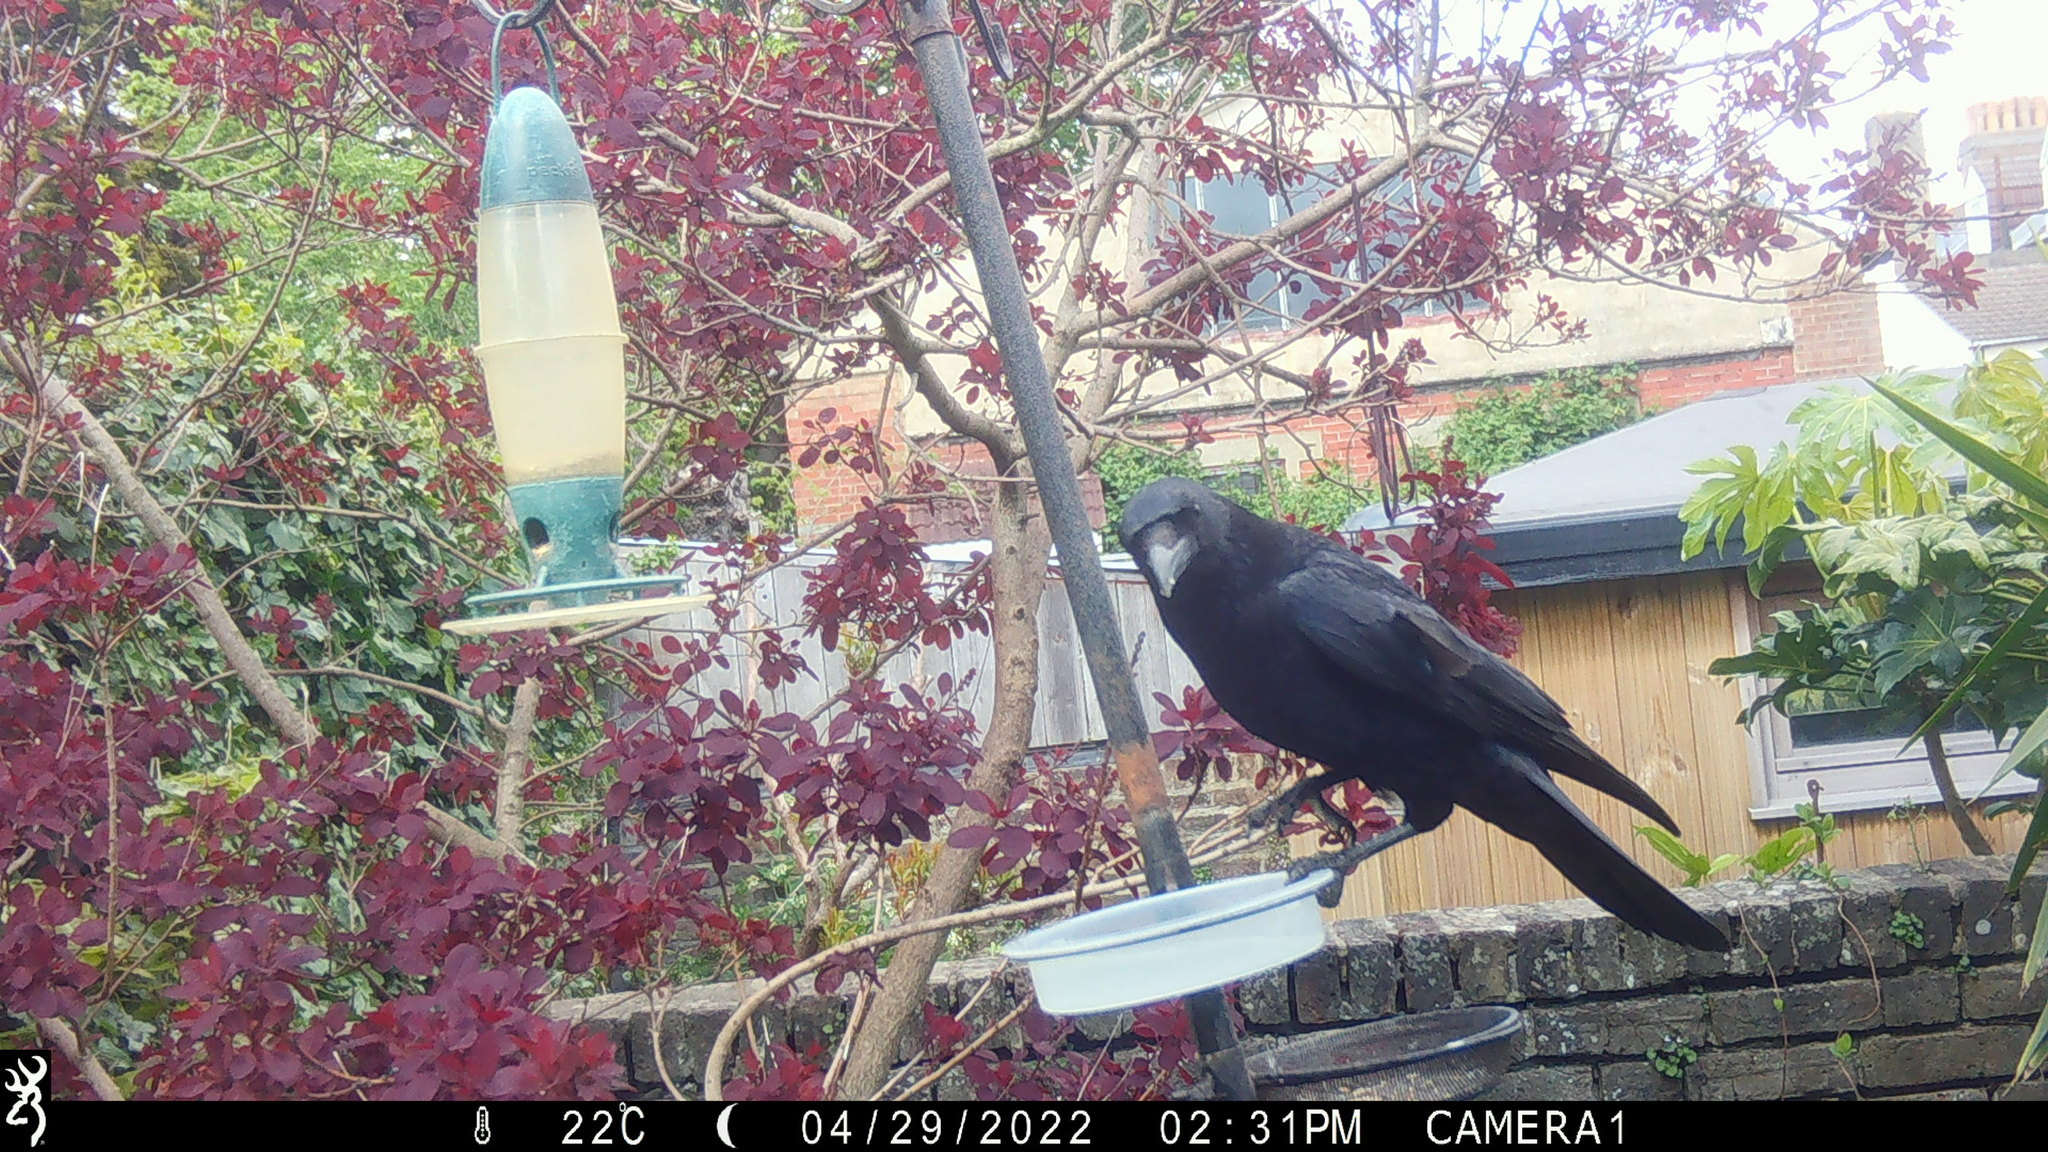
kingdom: Animalia
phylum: Chordata
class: Aves
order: Passeriformes
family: Corvidae
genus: Corvus
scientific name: Corvus corone
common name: Carrion crow
